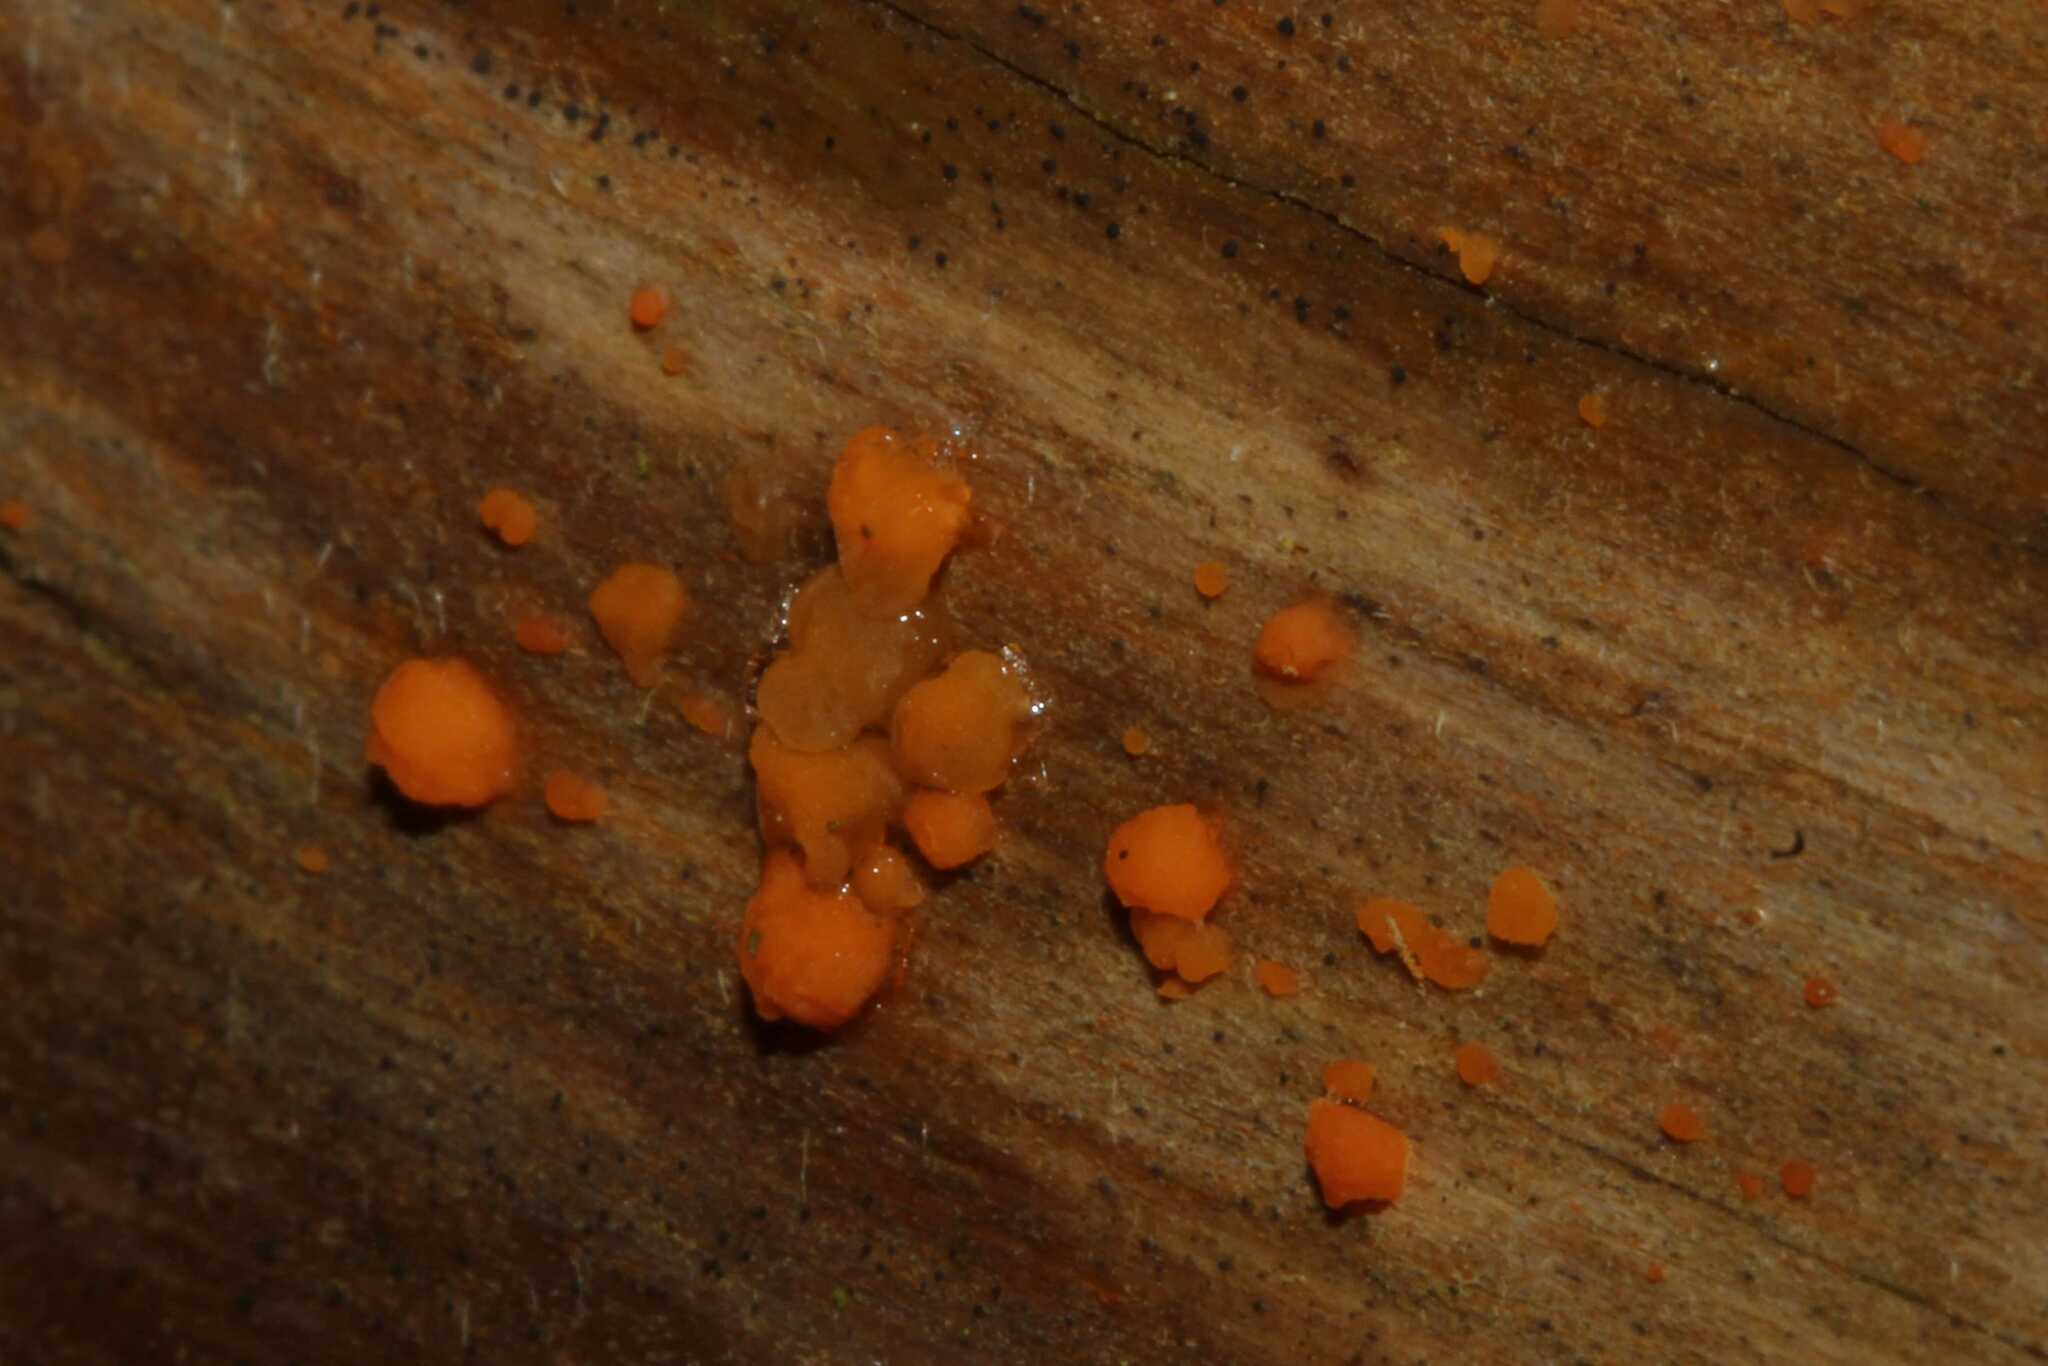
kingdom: Fungi
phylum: Basidiomycota
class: Dacrymycetes
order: Dacrymycetales
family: Dacrymycetaceae
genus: Dacrymyces
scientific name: Dacrymyces
